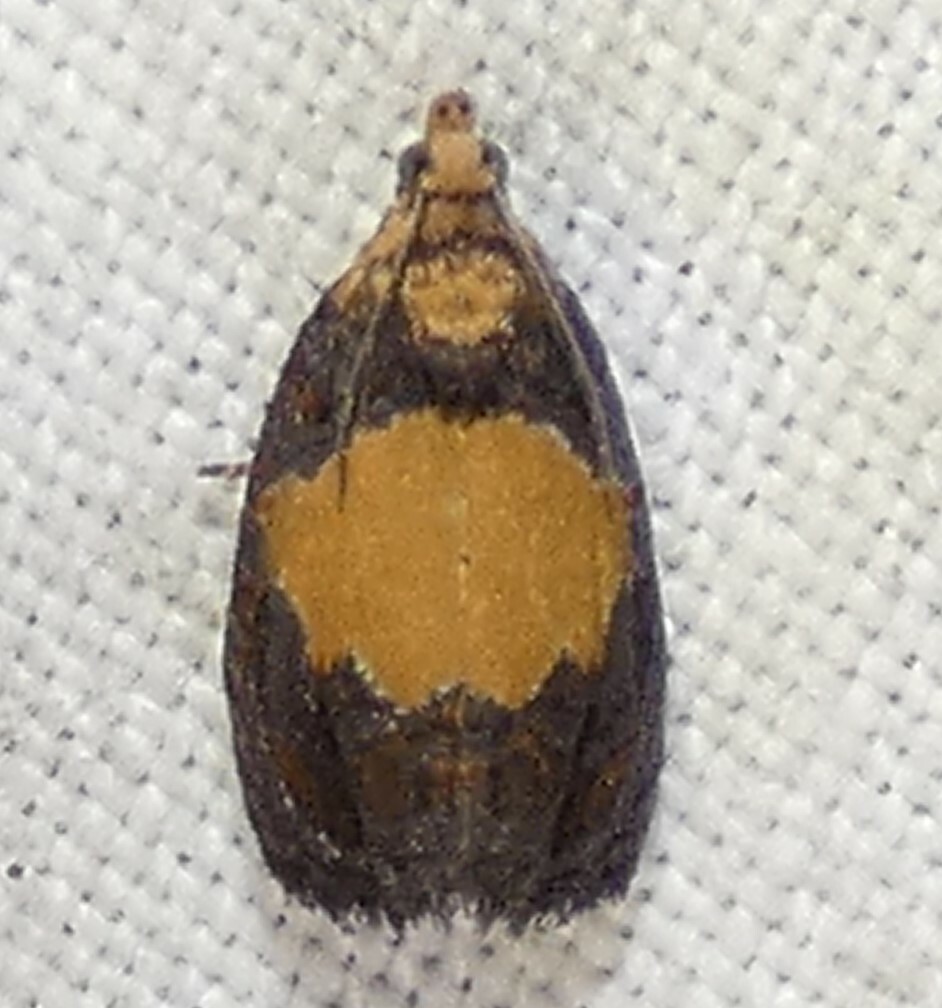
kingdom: Animalia
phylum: Arthropoda
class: Insecta
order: Lepidoptera
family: Tortricidae
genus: Olethreutes
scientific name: Olethreutes osmundana
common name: Fern olethreutes moth
